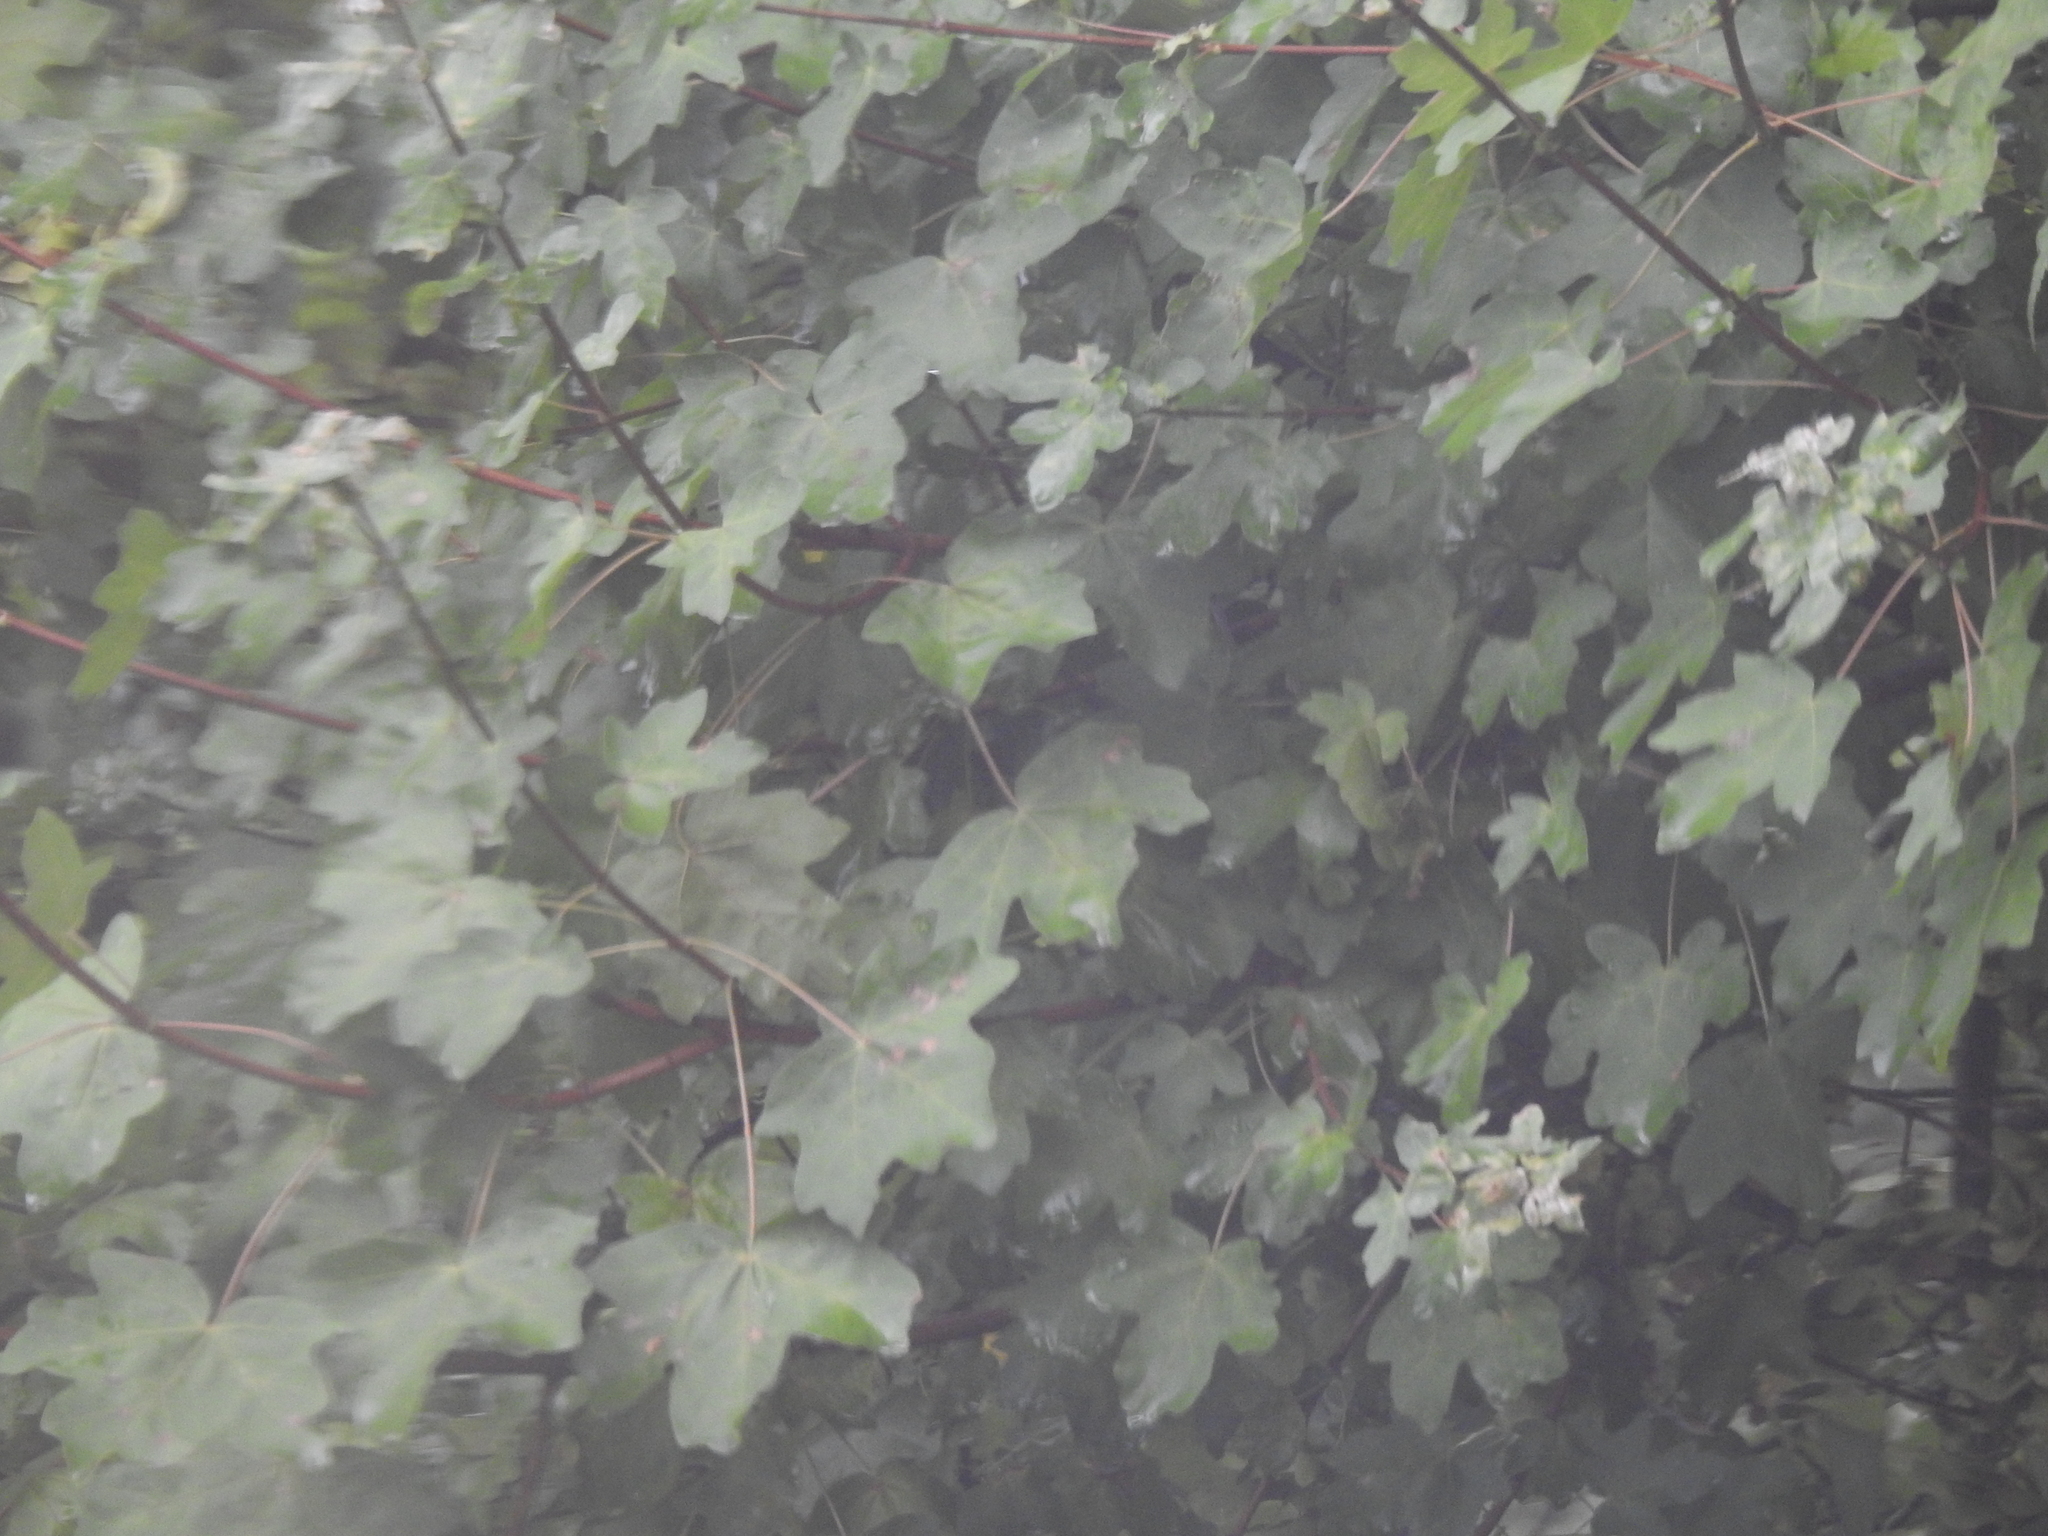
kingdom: Plantae
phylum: Tracheophyta
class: Magnoliopsida
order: Sapindales
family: Sapindaceae
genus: Acer
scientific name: Acer campestre
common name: Field maple
